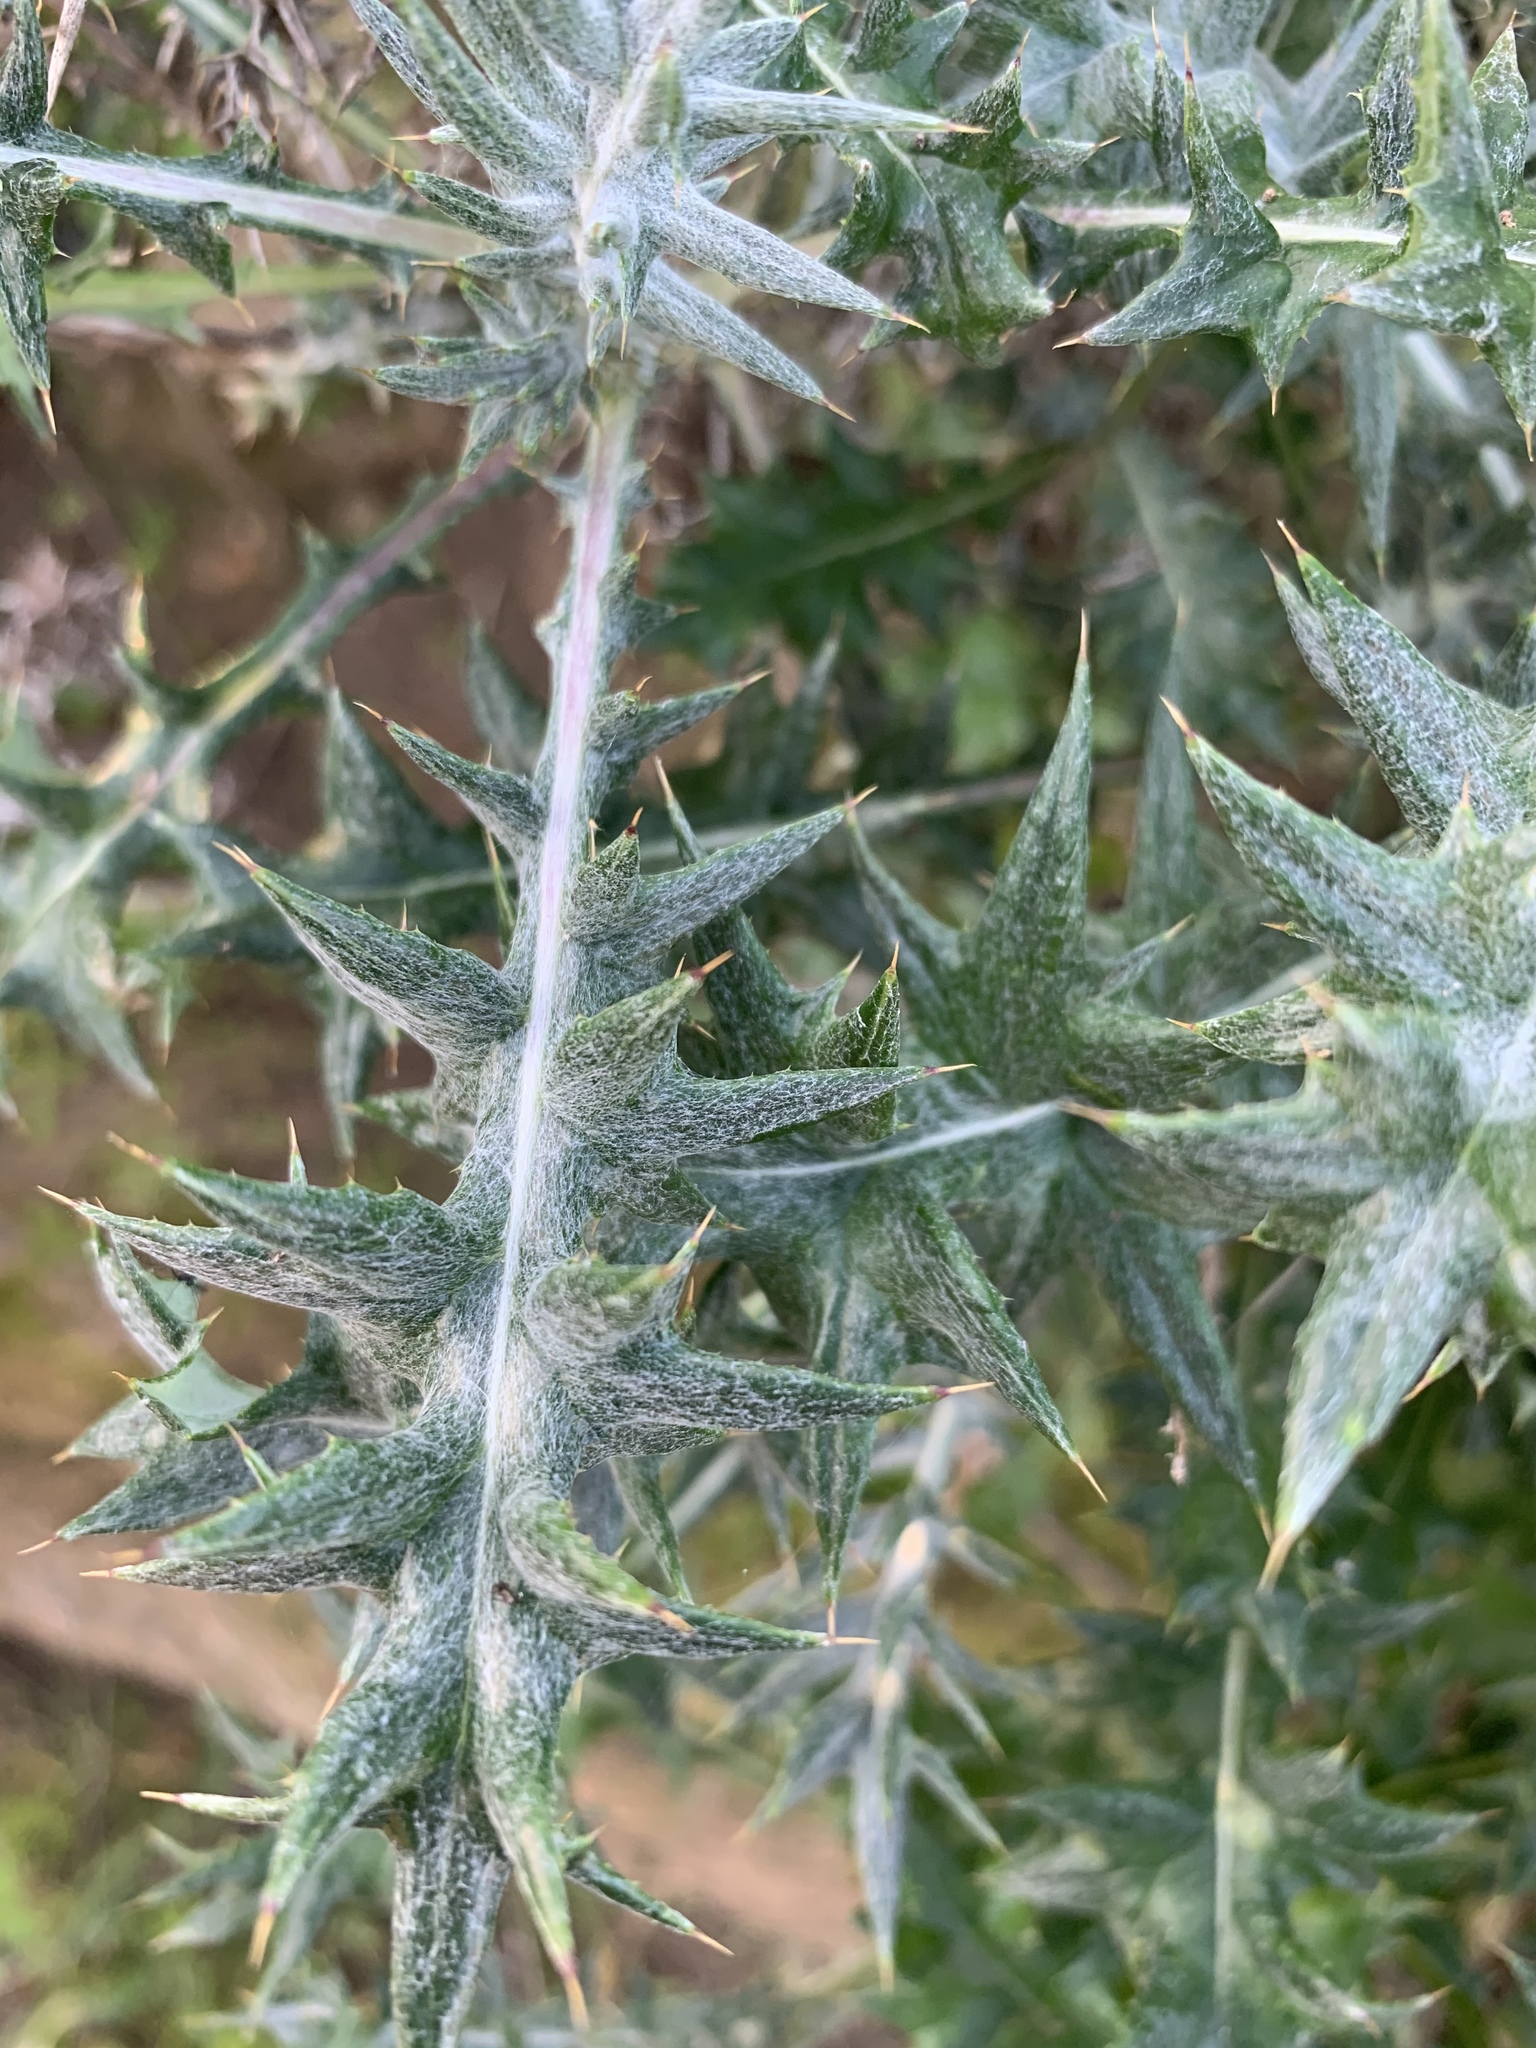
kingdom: Plantae
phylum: Tracheophyta
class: Magnoliopsida
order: Asterales
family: Asteraceae
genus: Berkheya
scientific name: Berkheya rigida
